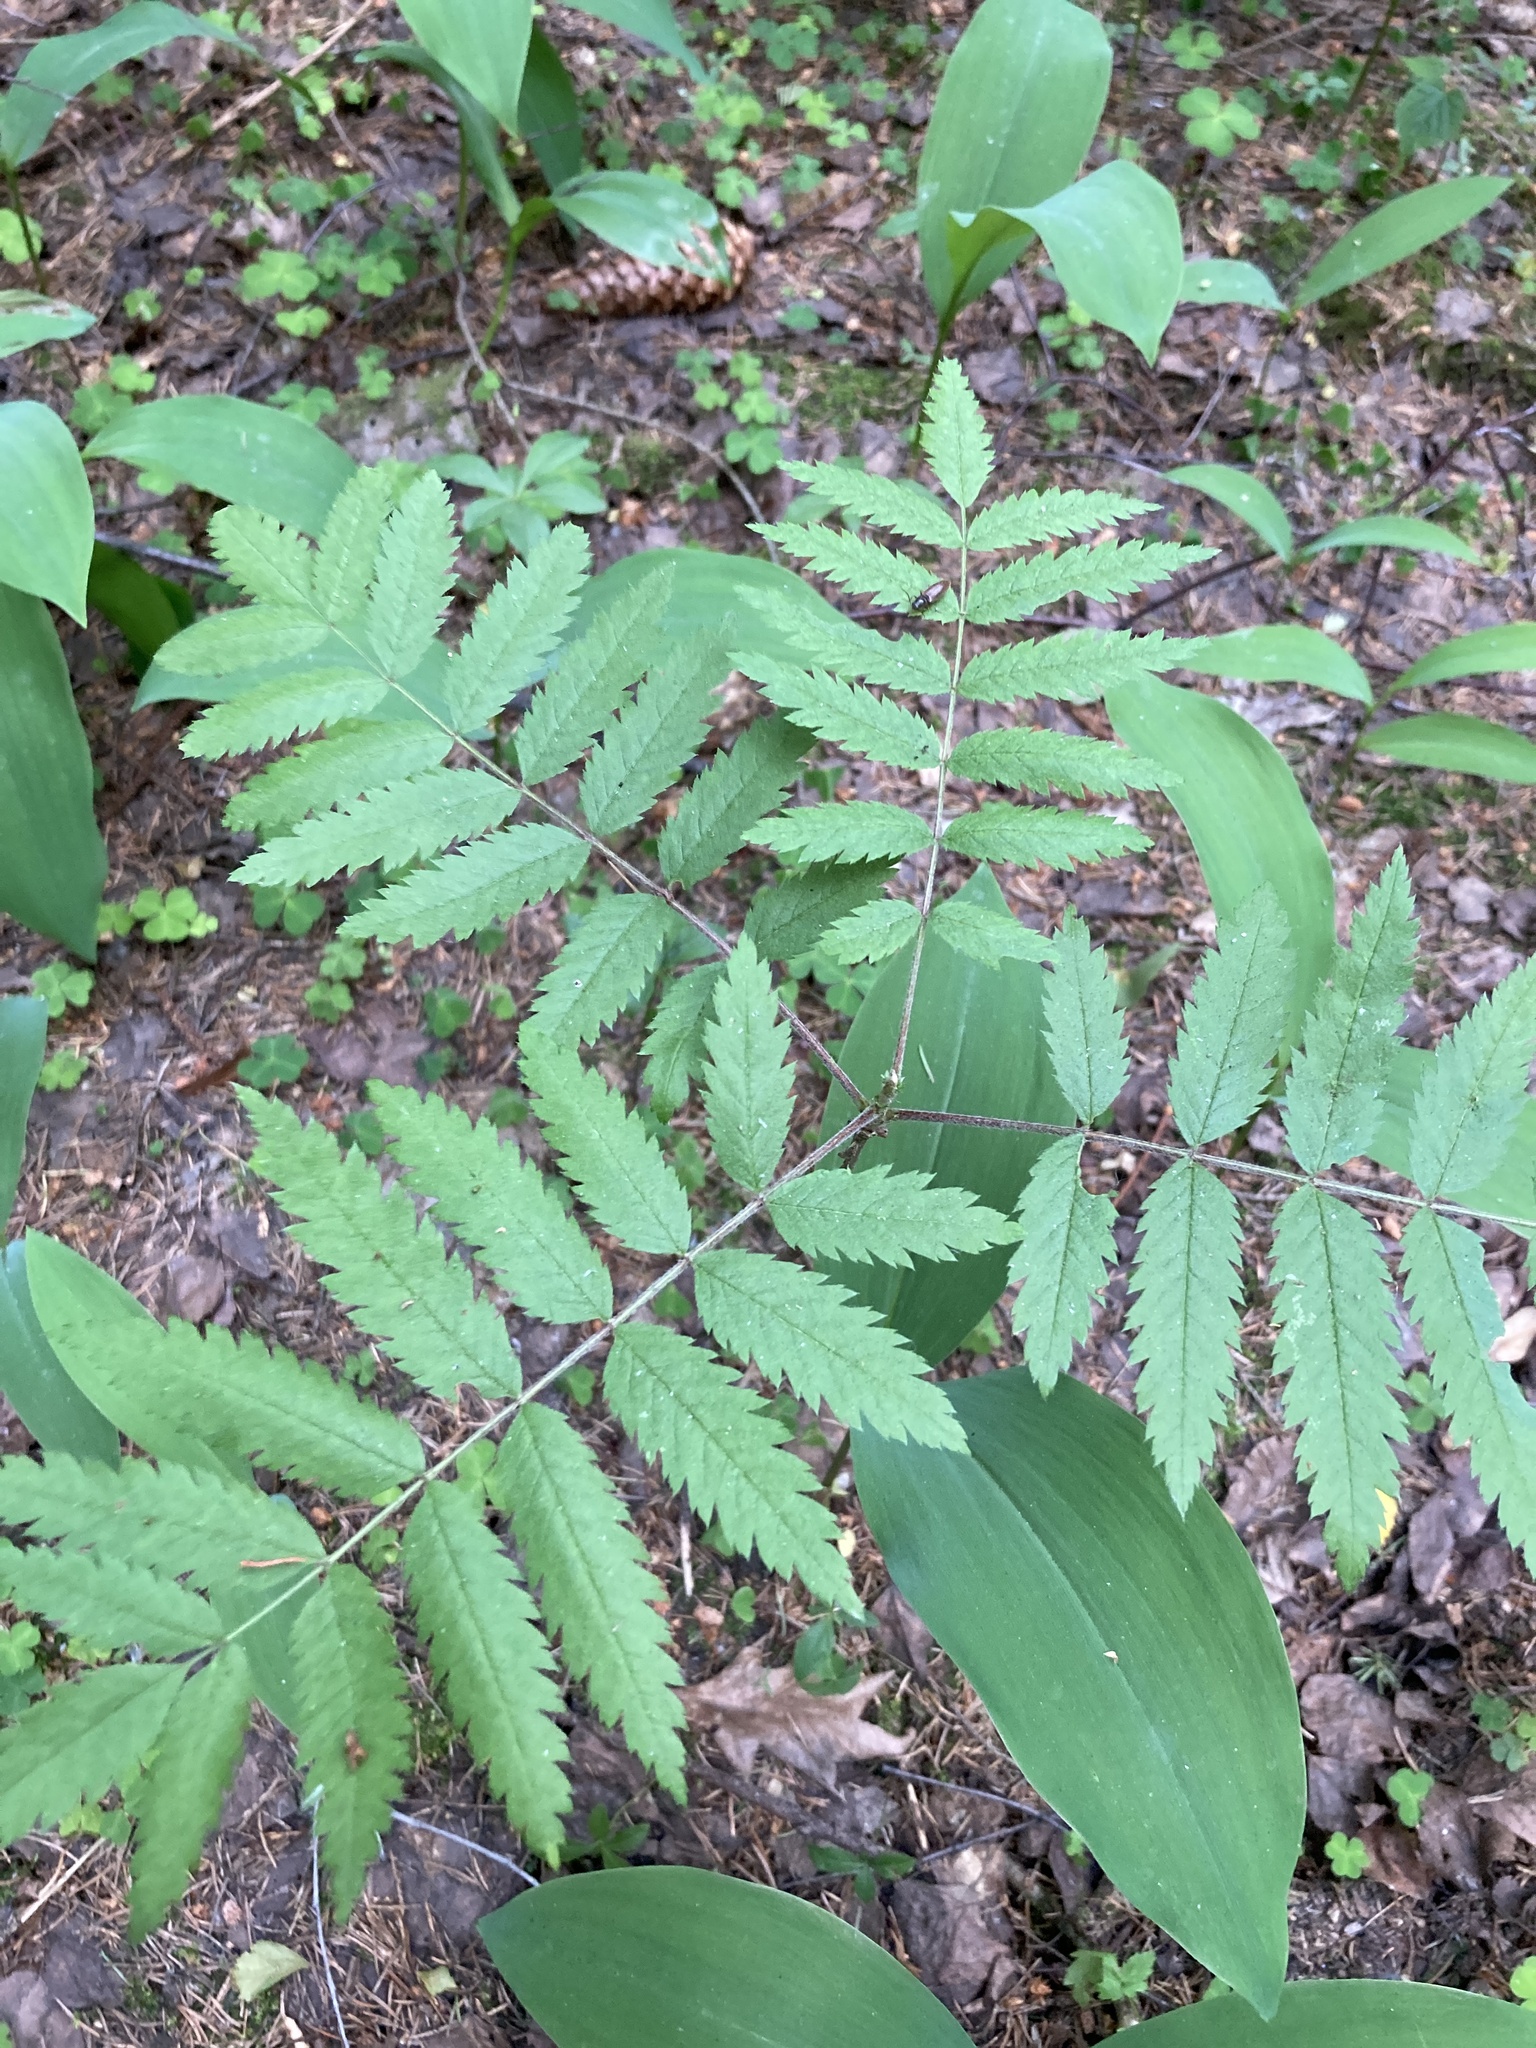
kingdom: Plantae
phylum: Tracheophyta
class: Magnoliopsida
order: Rosales
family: Rosaceae
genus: Sorbus
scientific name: Sorbus aucuparia
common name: Rowan
